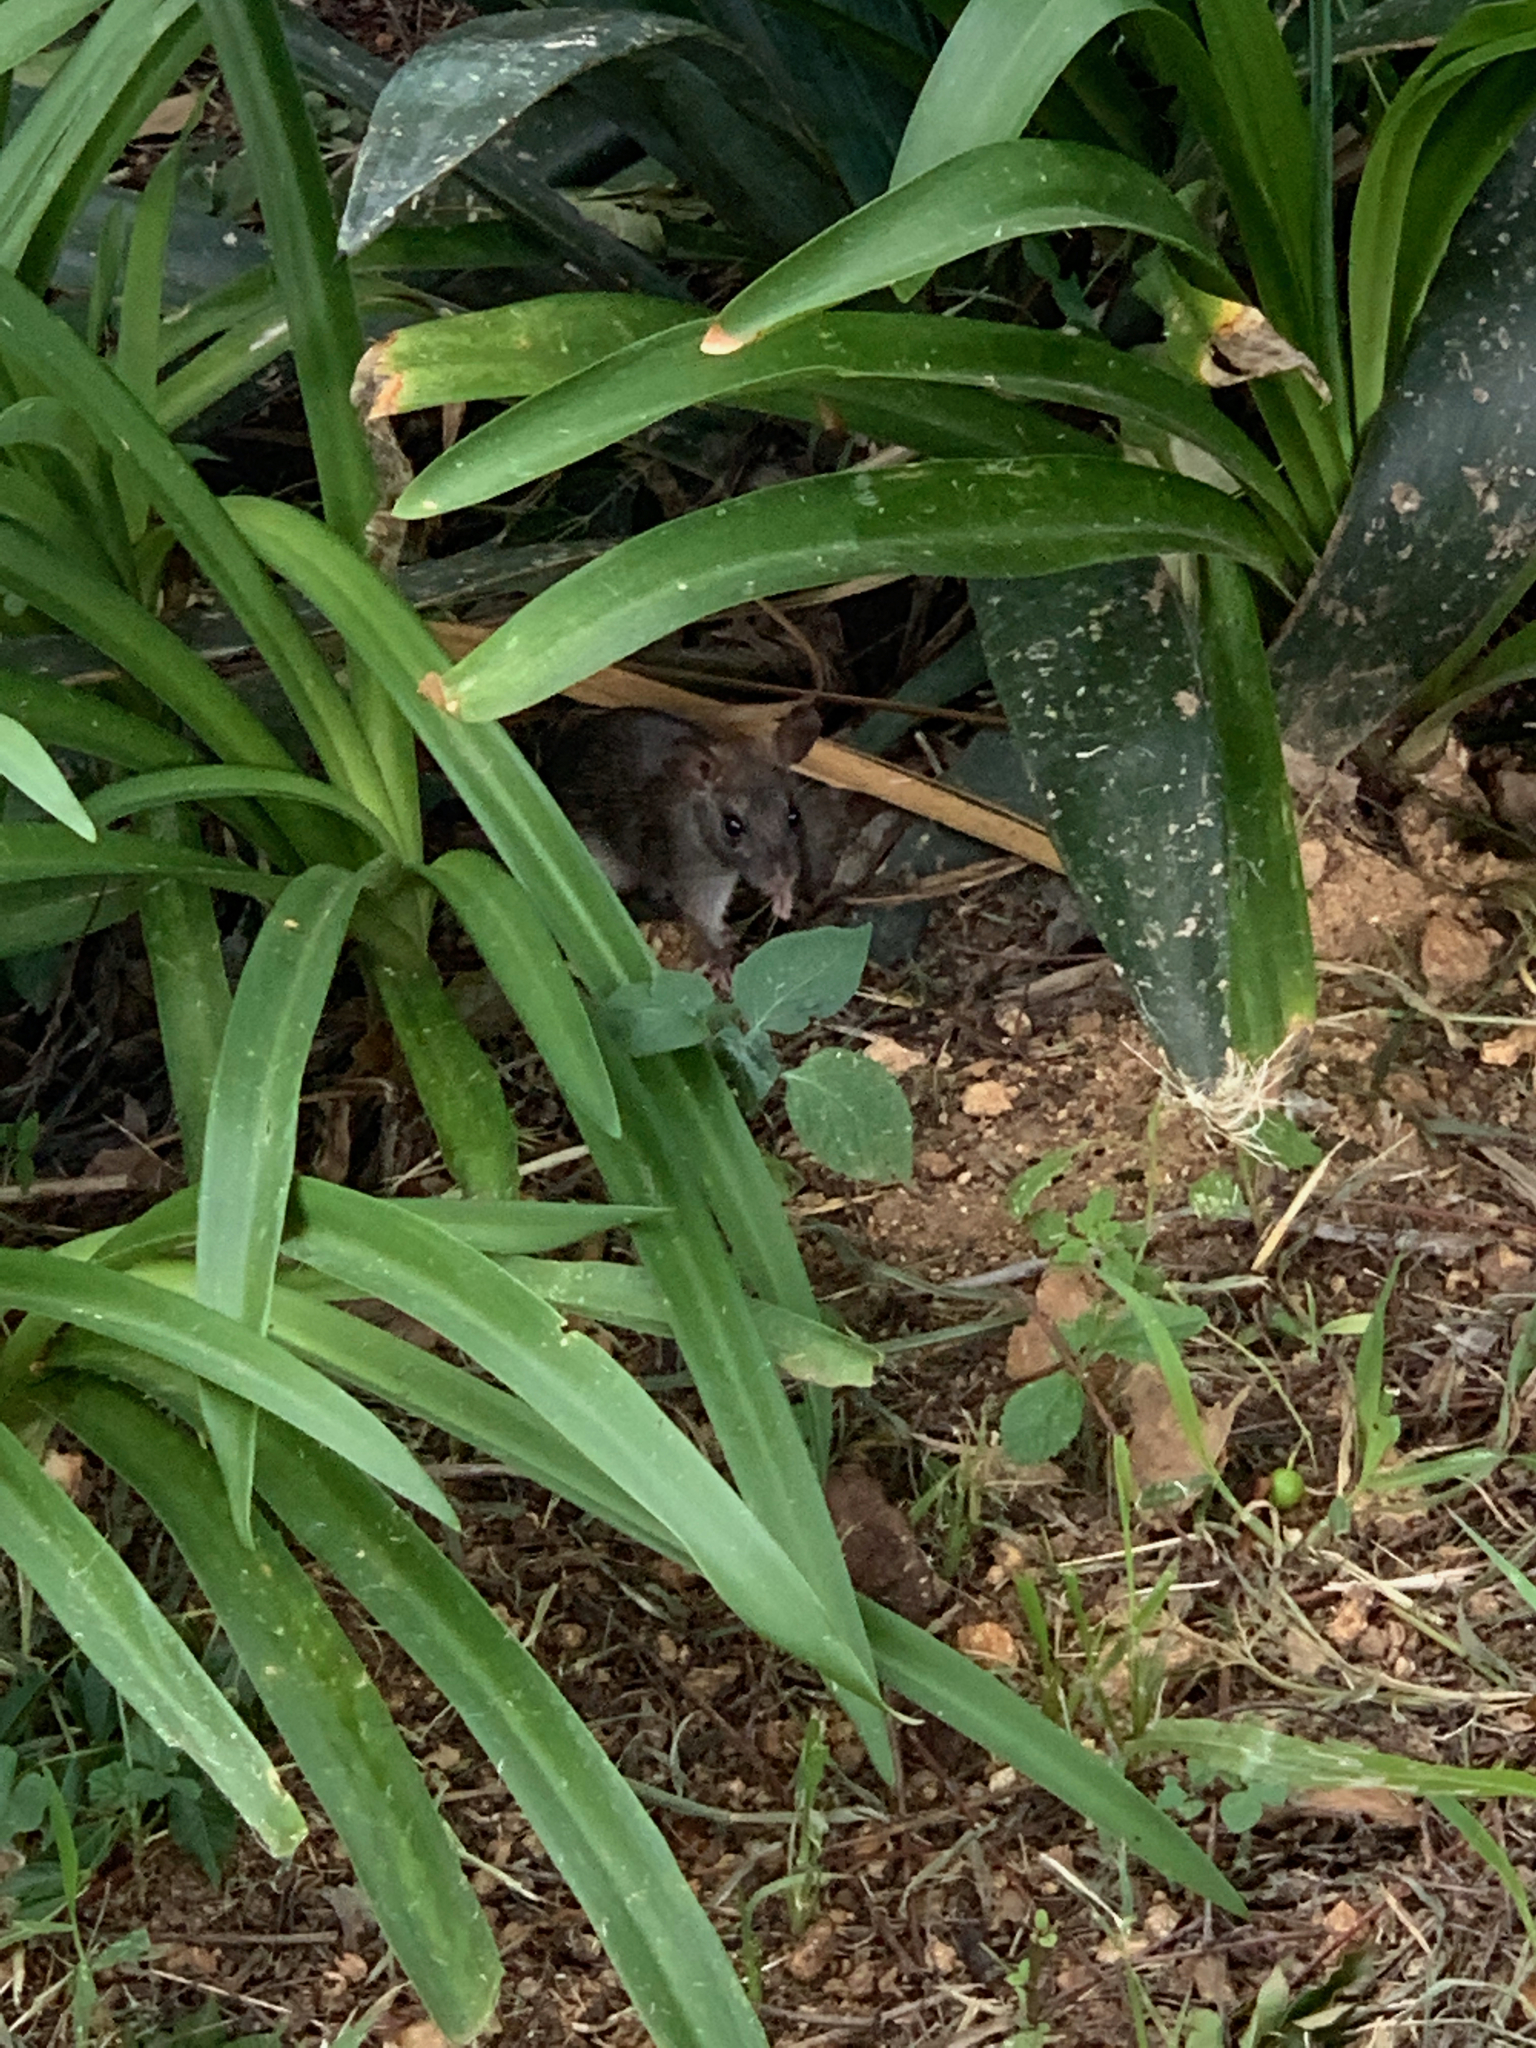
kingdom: Animalia
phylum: Chordata
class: Mammalia
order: Rodentia
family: Muridae
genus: Rattus
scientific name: Rattus rattus
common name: Black rat
